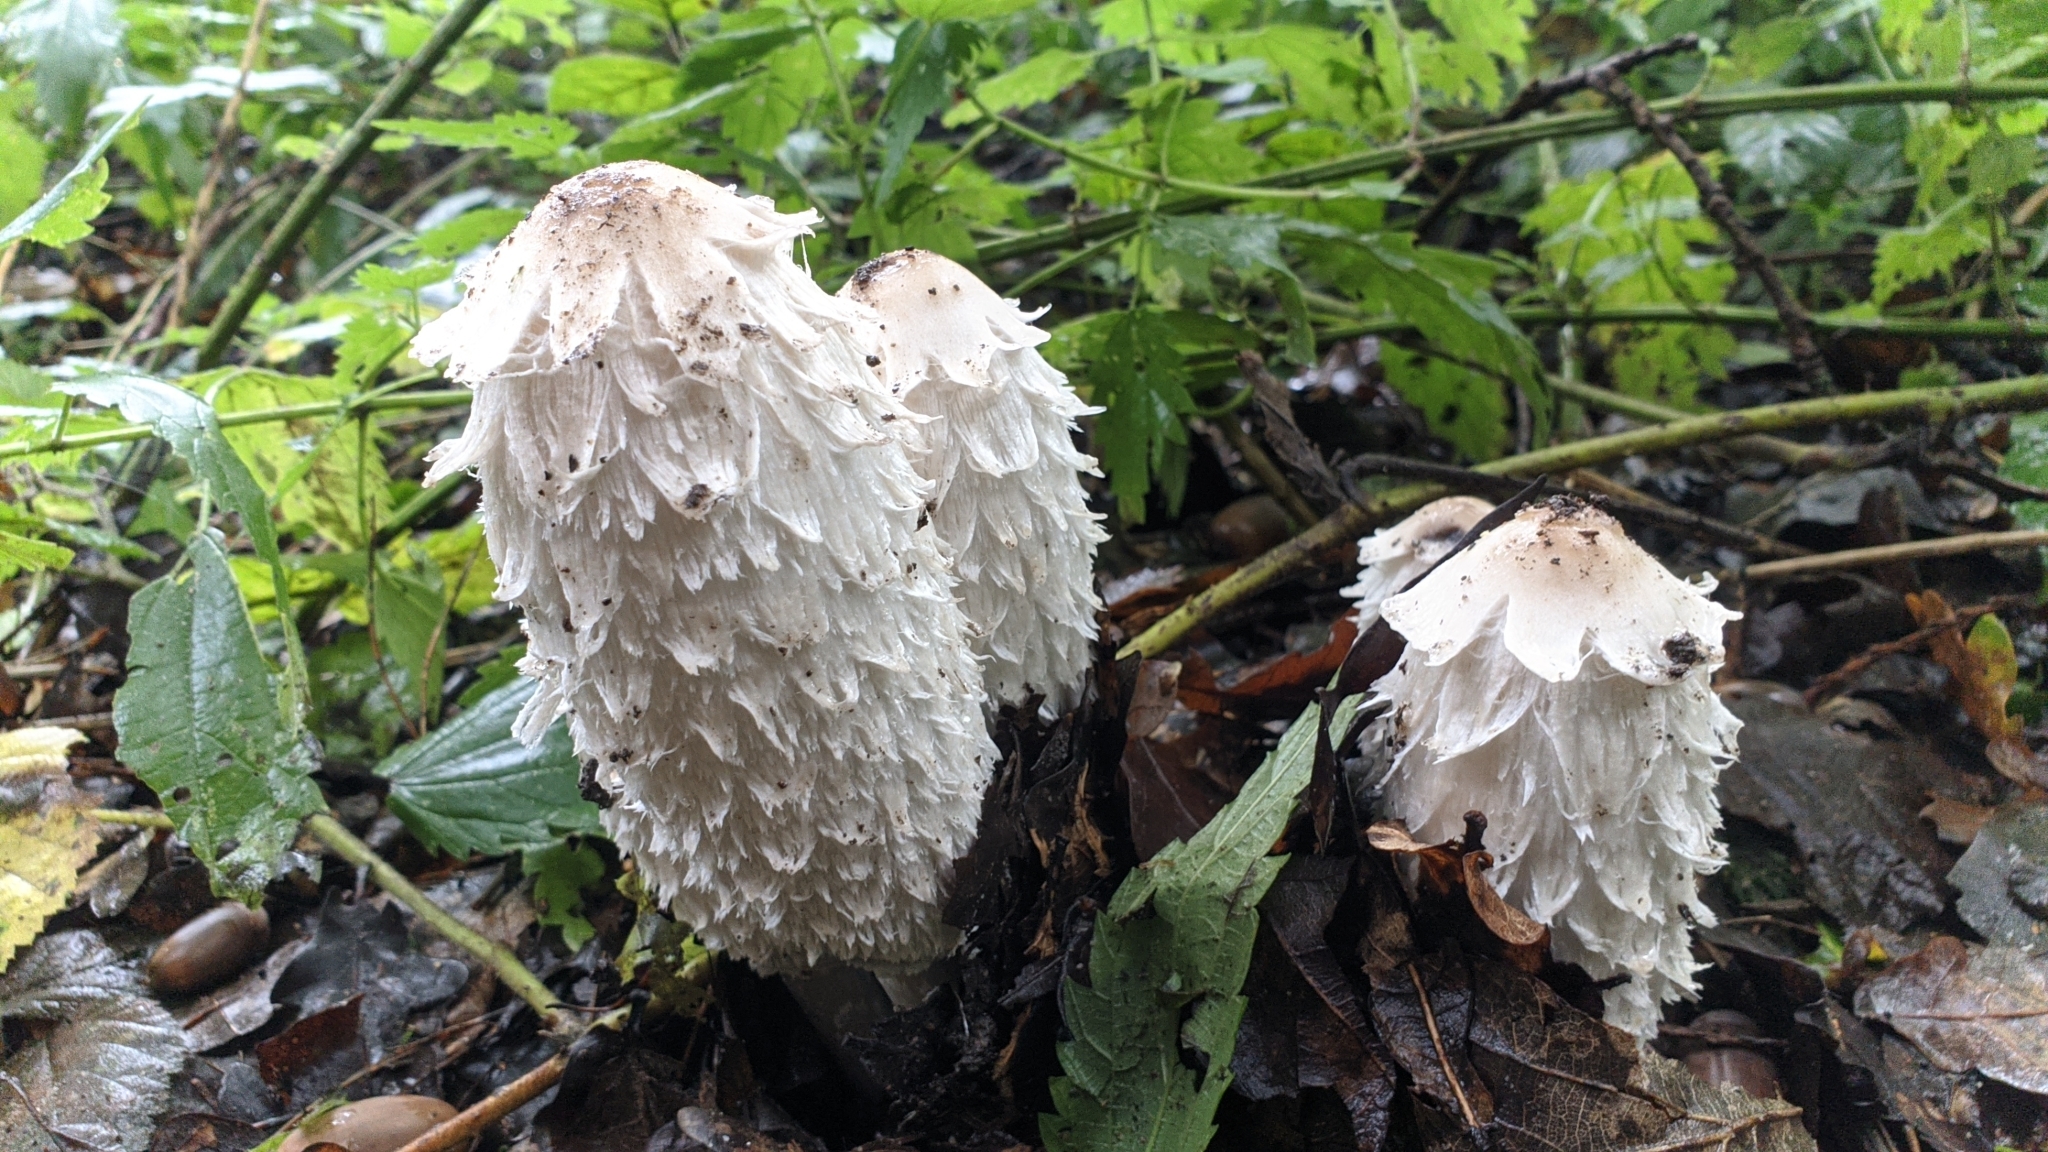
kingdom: Fungi
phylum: Basidiomycota
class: Agaricomycetes
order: Agaricales
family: Agaricaceae
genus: Coprinus
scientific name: Coprinus comatus
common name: Lawyer's wig
